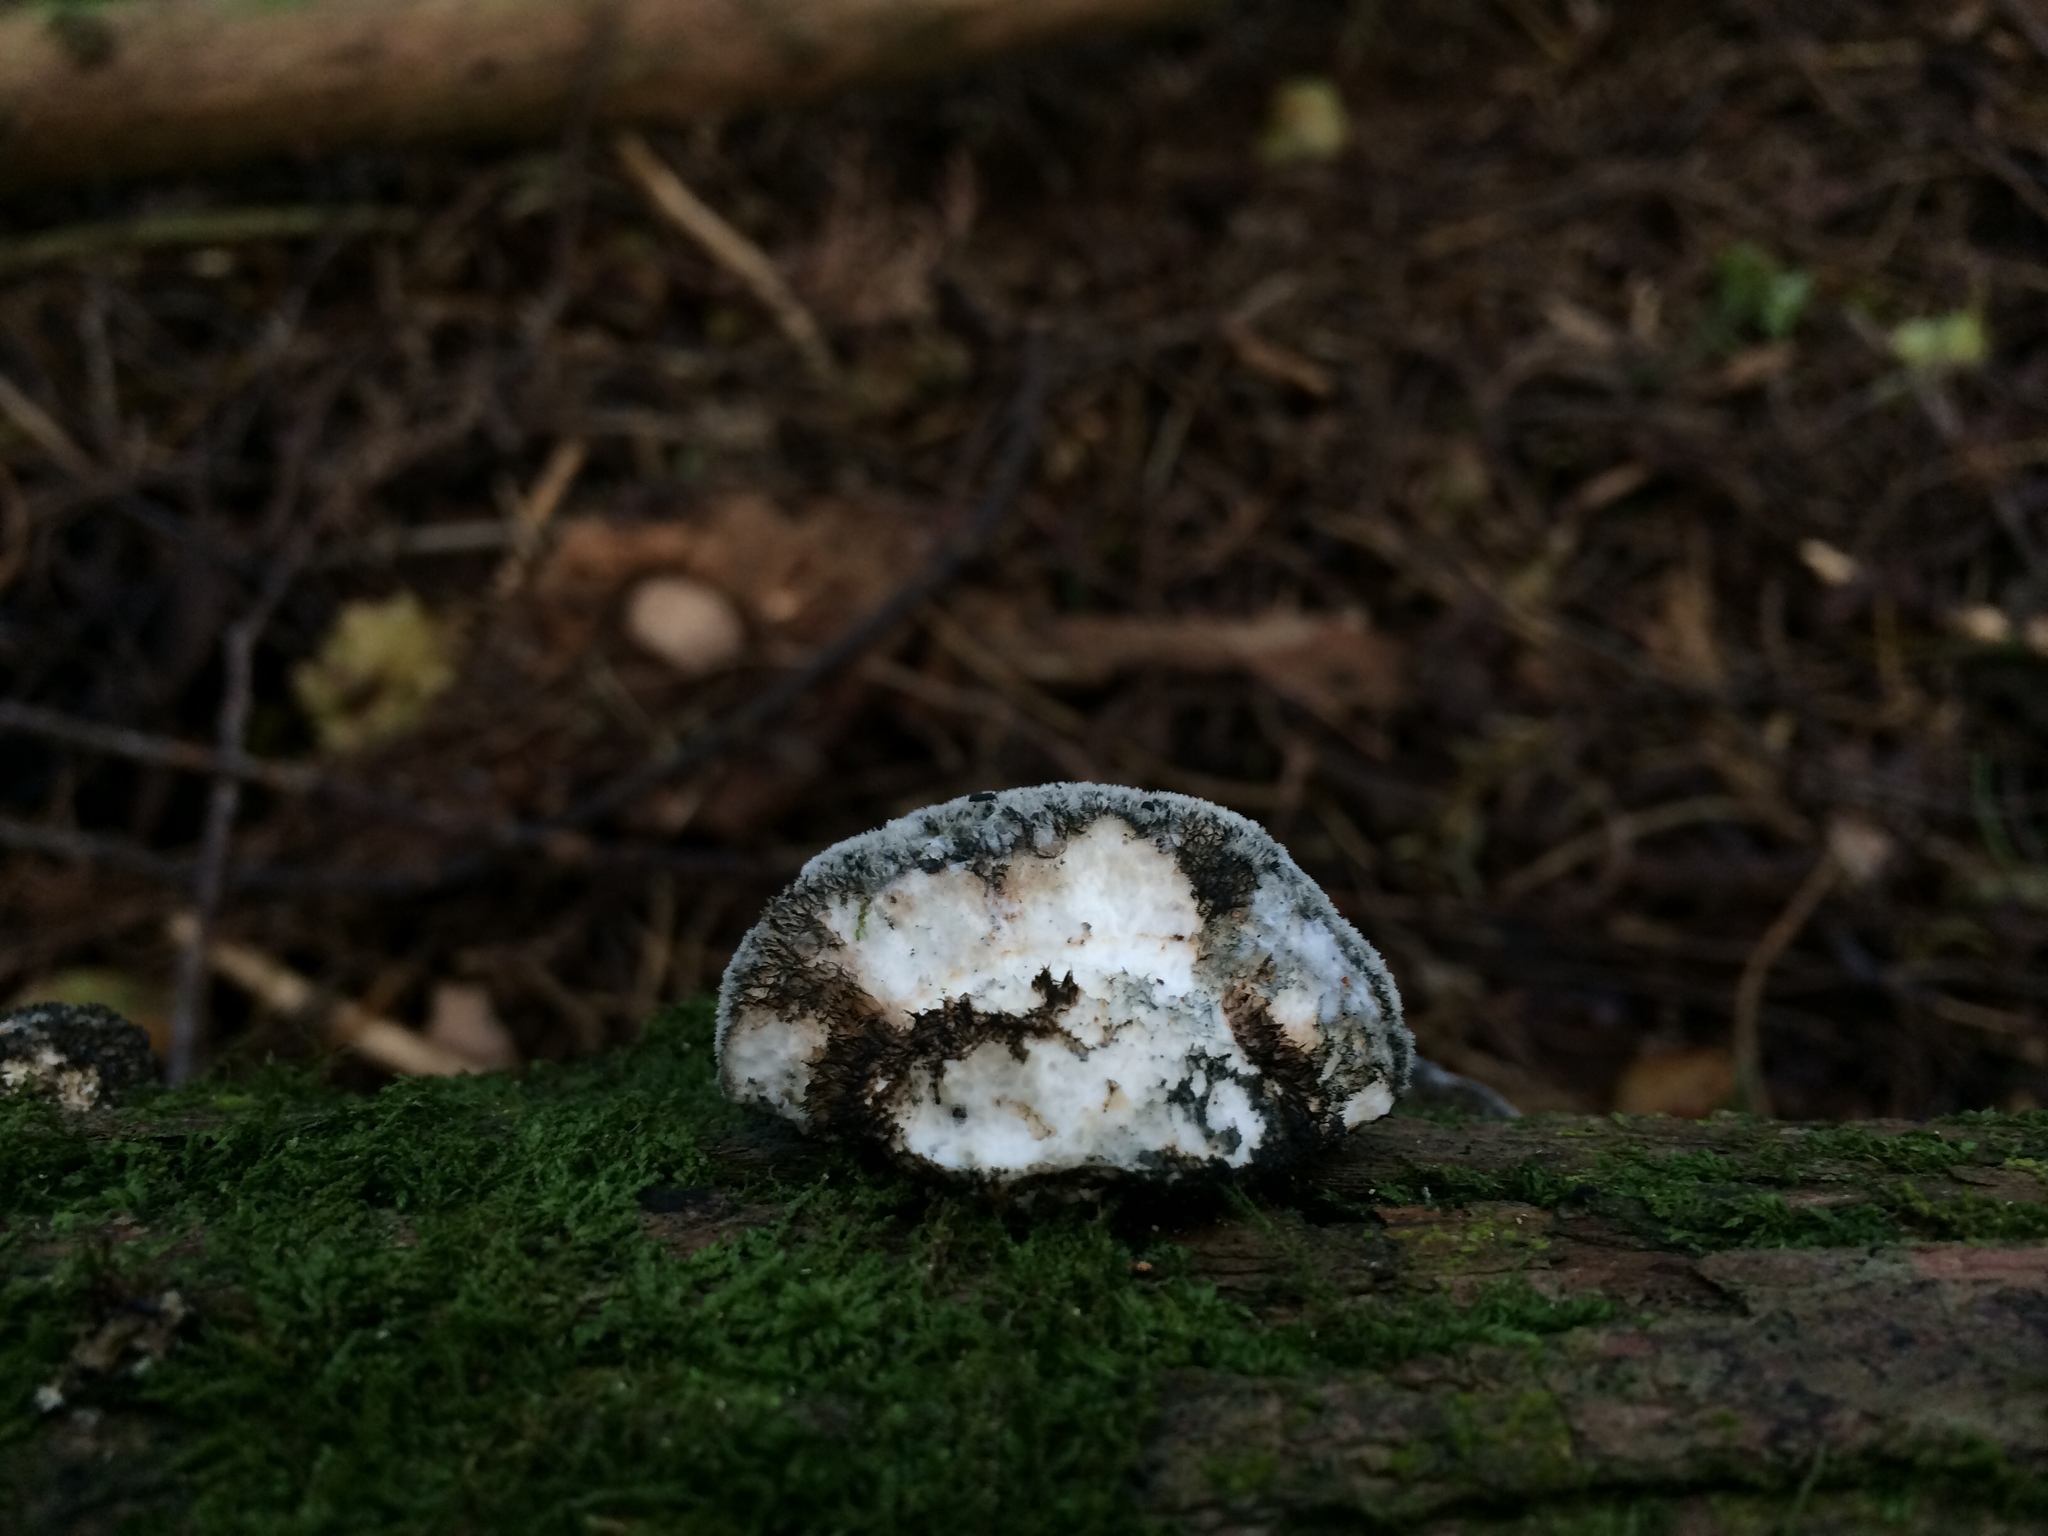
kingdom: Fungi
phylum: Basidiomycota
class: Agaricomycetes
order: Polyporales
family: Polyporaceae
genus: Cyanosporus
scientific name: Cyanosporus caesius
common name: Blue cheese polypore
